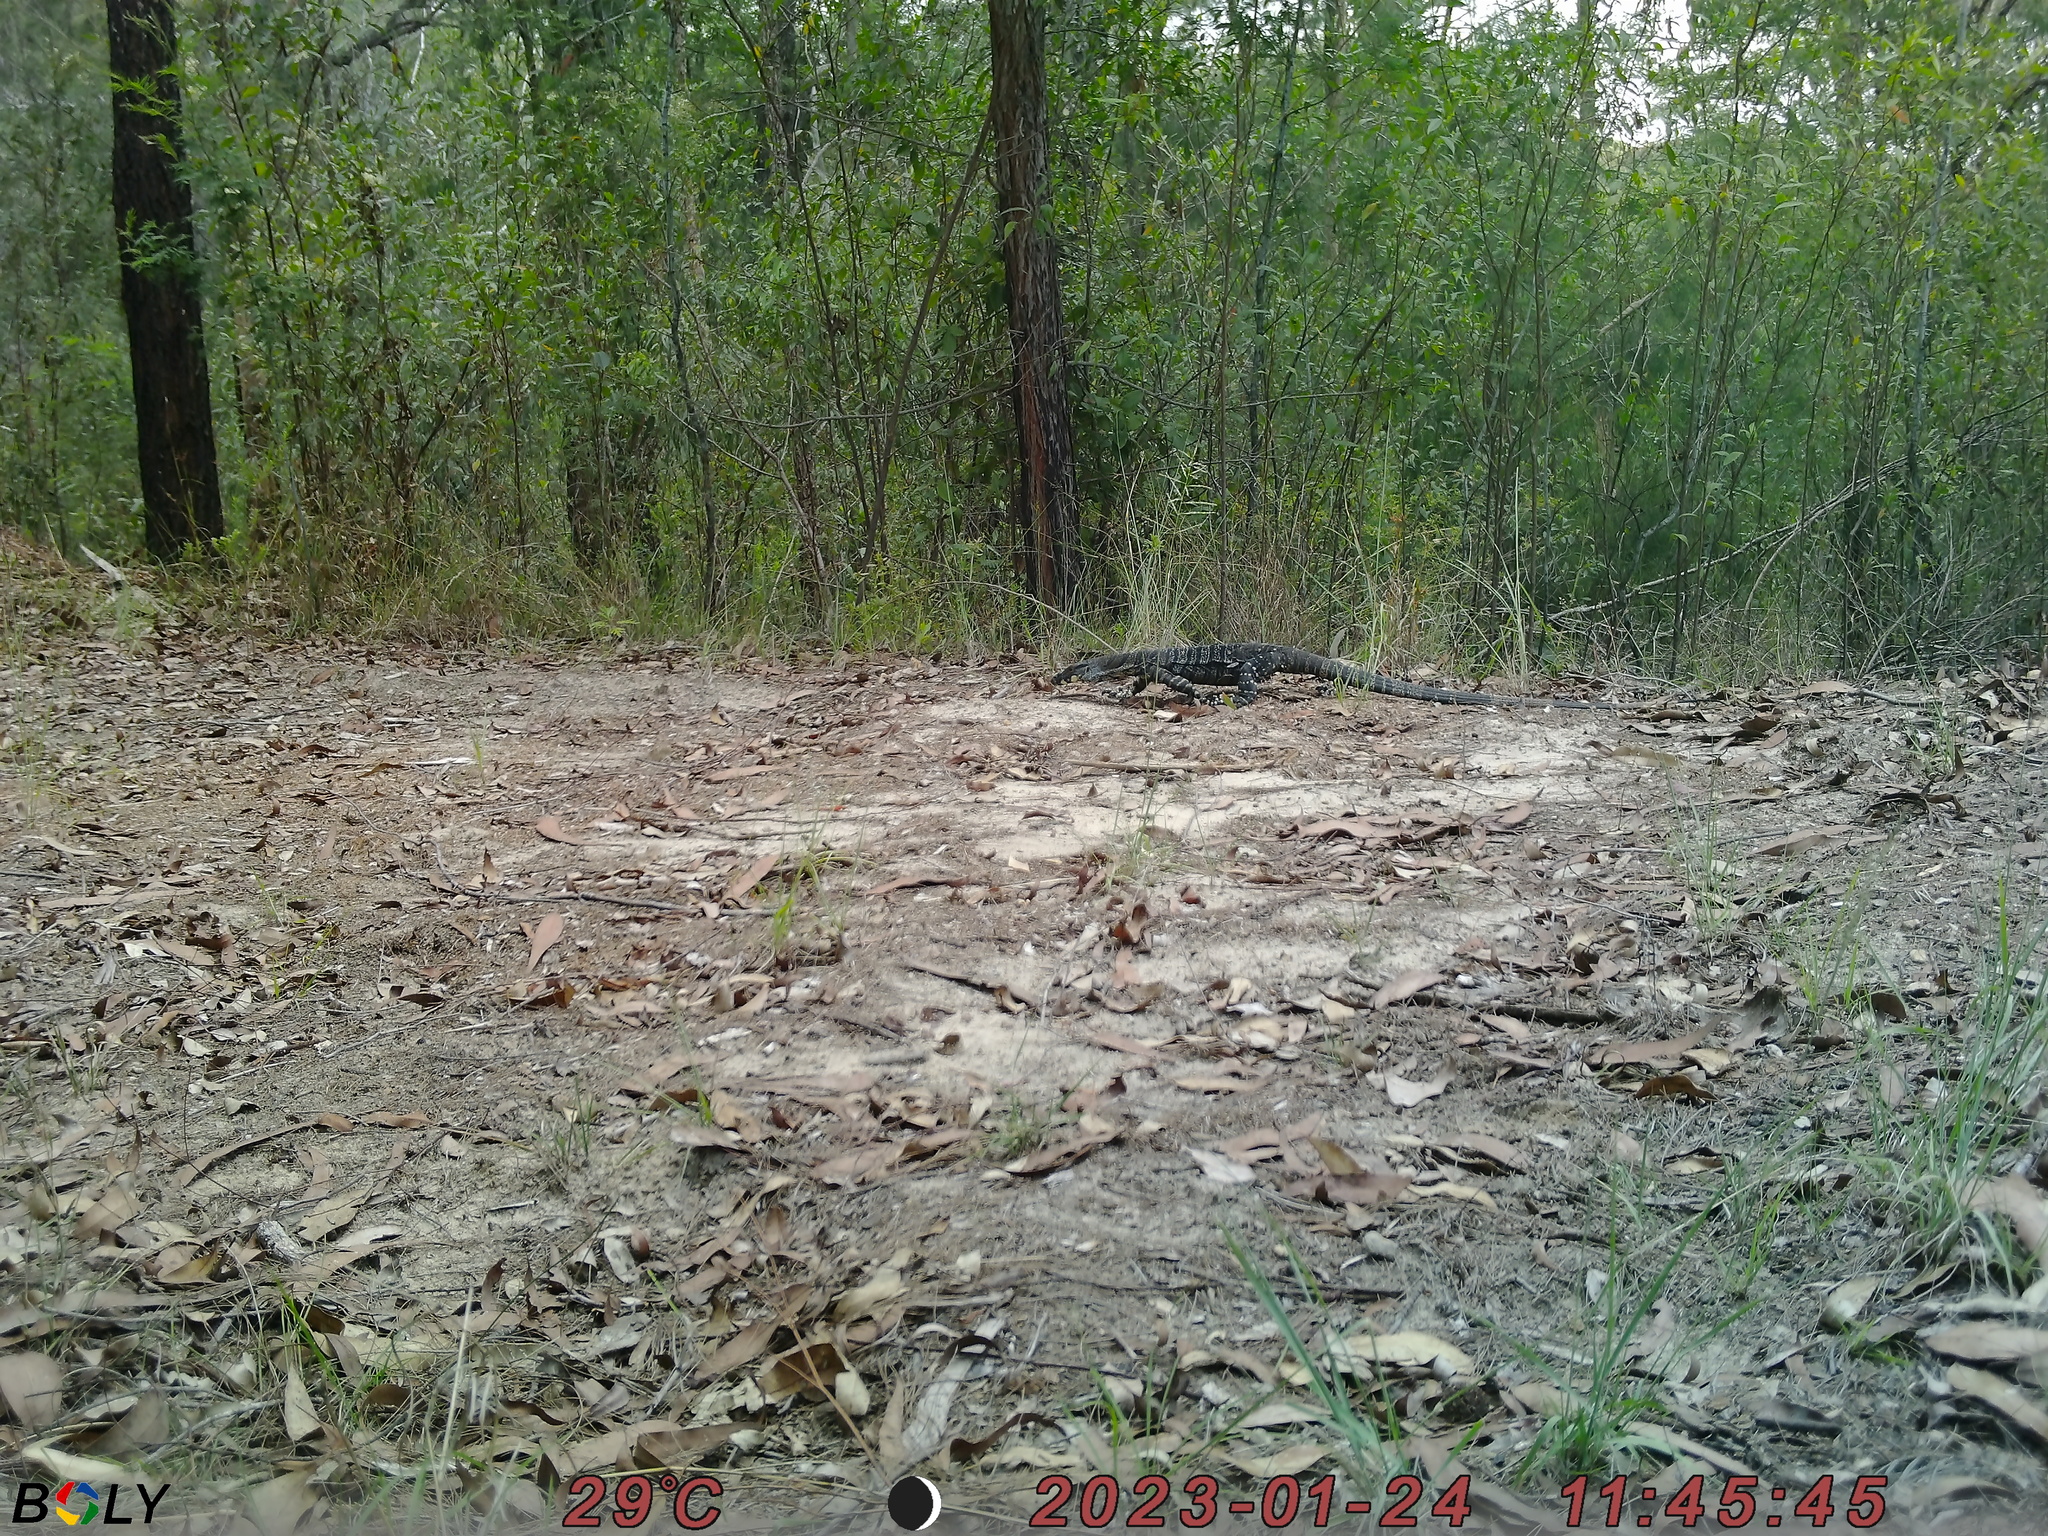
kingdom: Animalia
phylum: Chordata
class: Squamata
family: Varanidae
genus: Varanus
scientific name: Varanus varius
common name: Lace monitor
